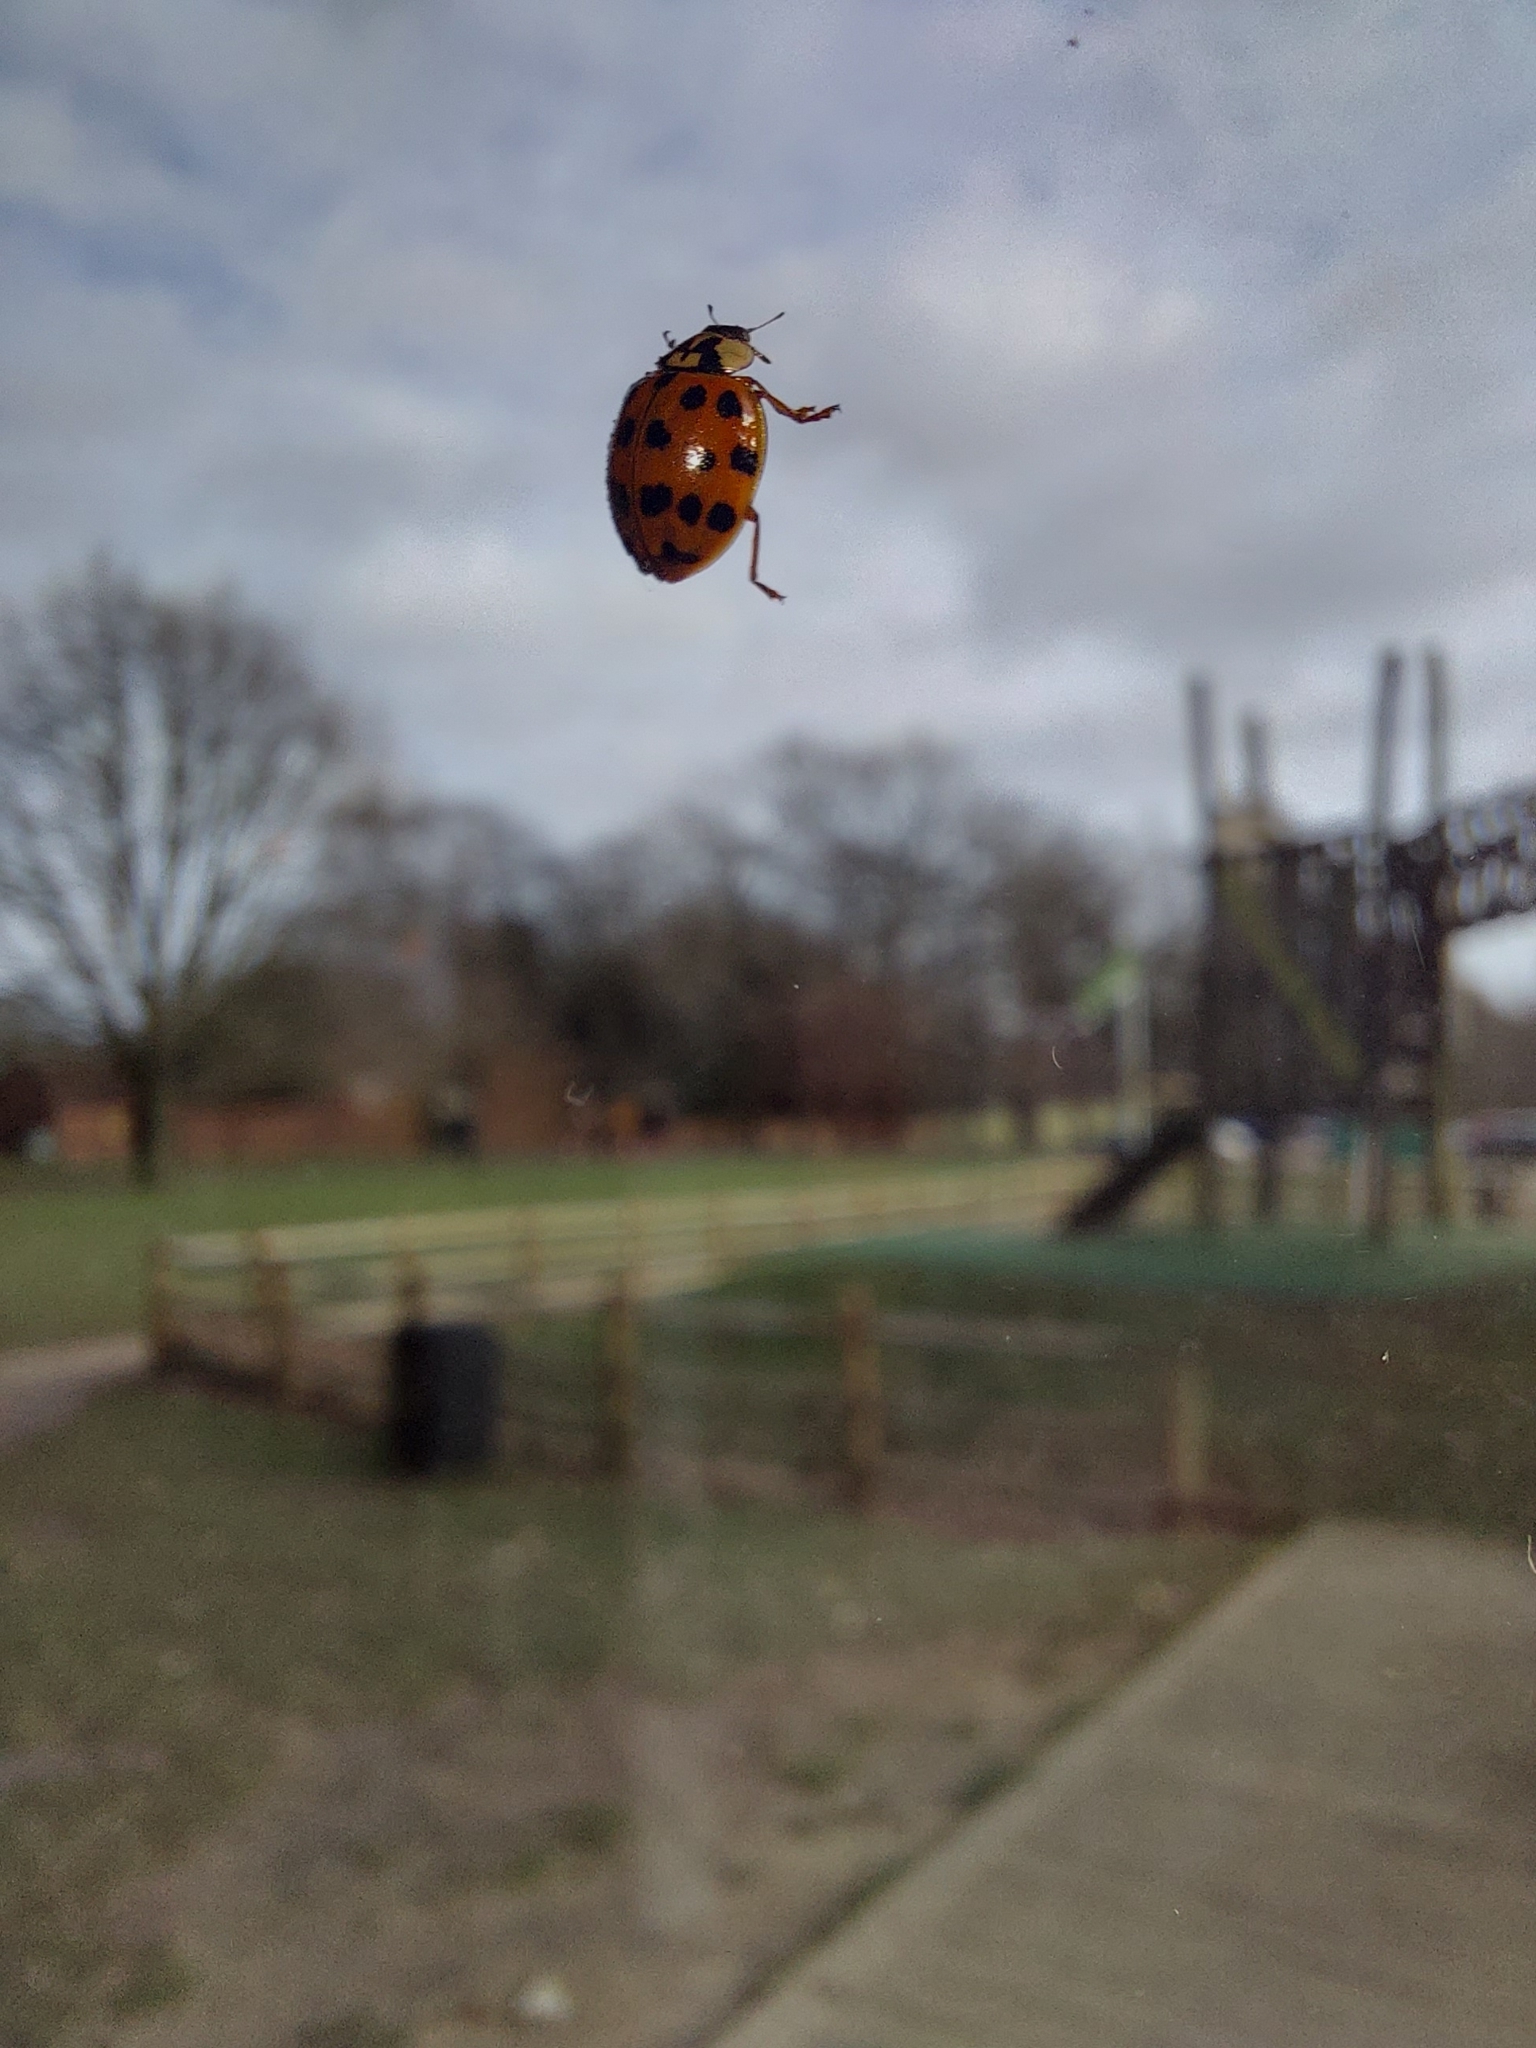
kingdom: Animalia
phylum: Arthropoda
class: Insecta
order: Coleoptera
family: Coccinellidae
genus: Harmonia
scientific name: Harmonia axyridis
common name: Harlequin ladybird
